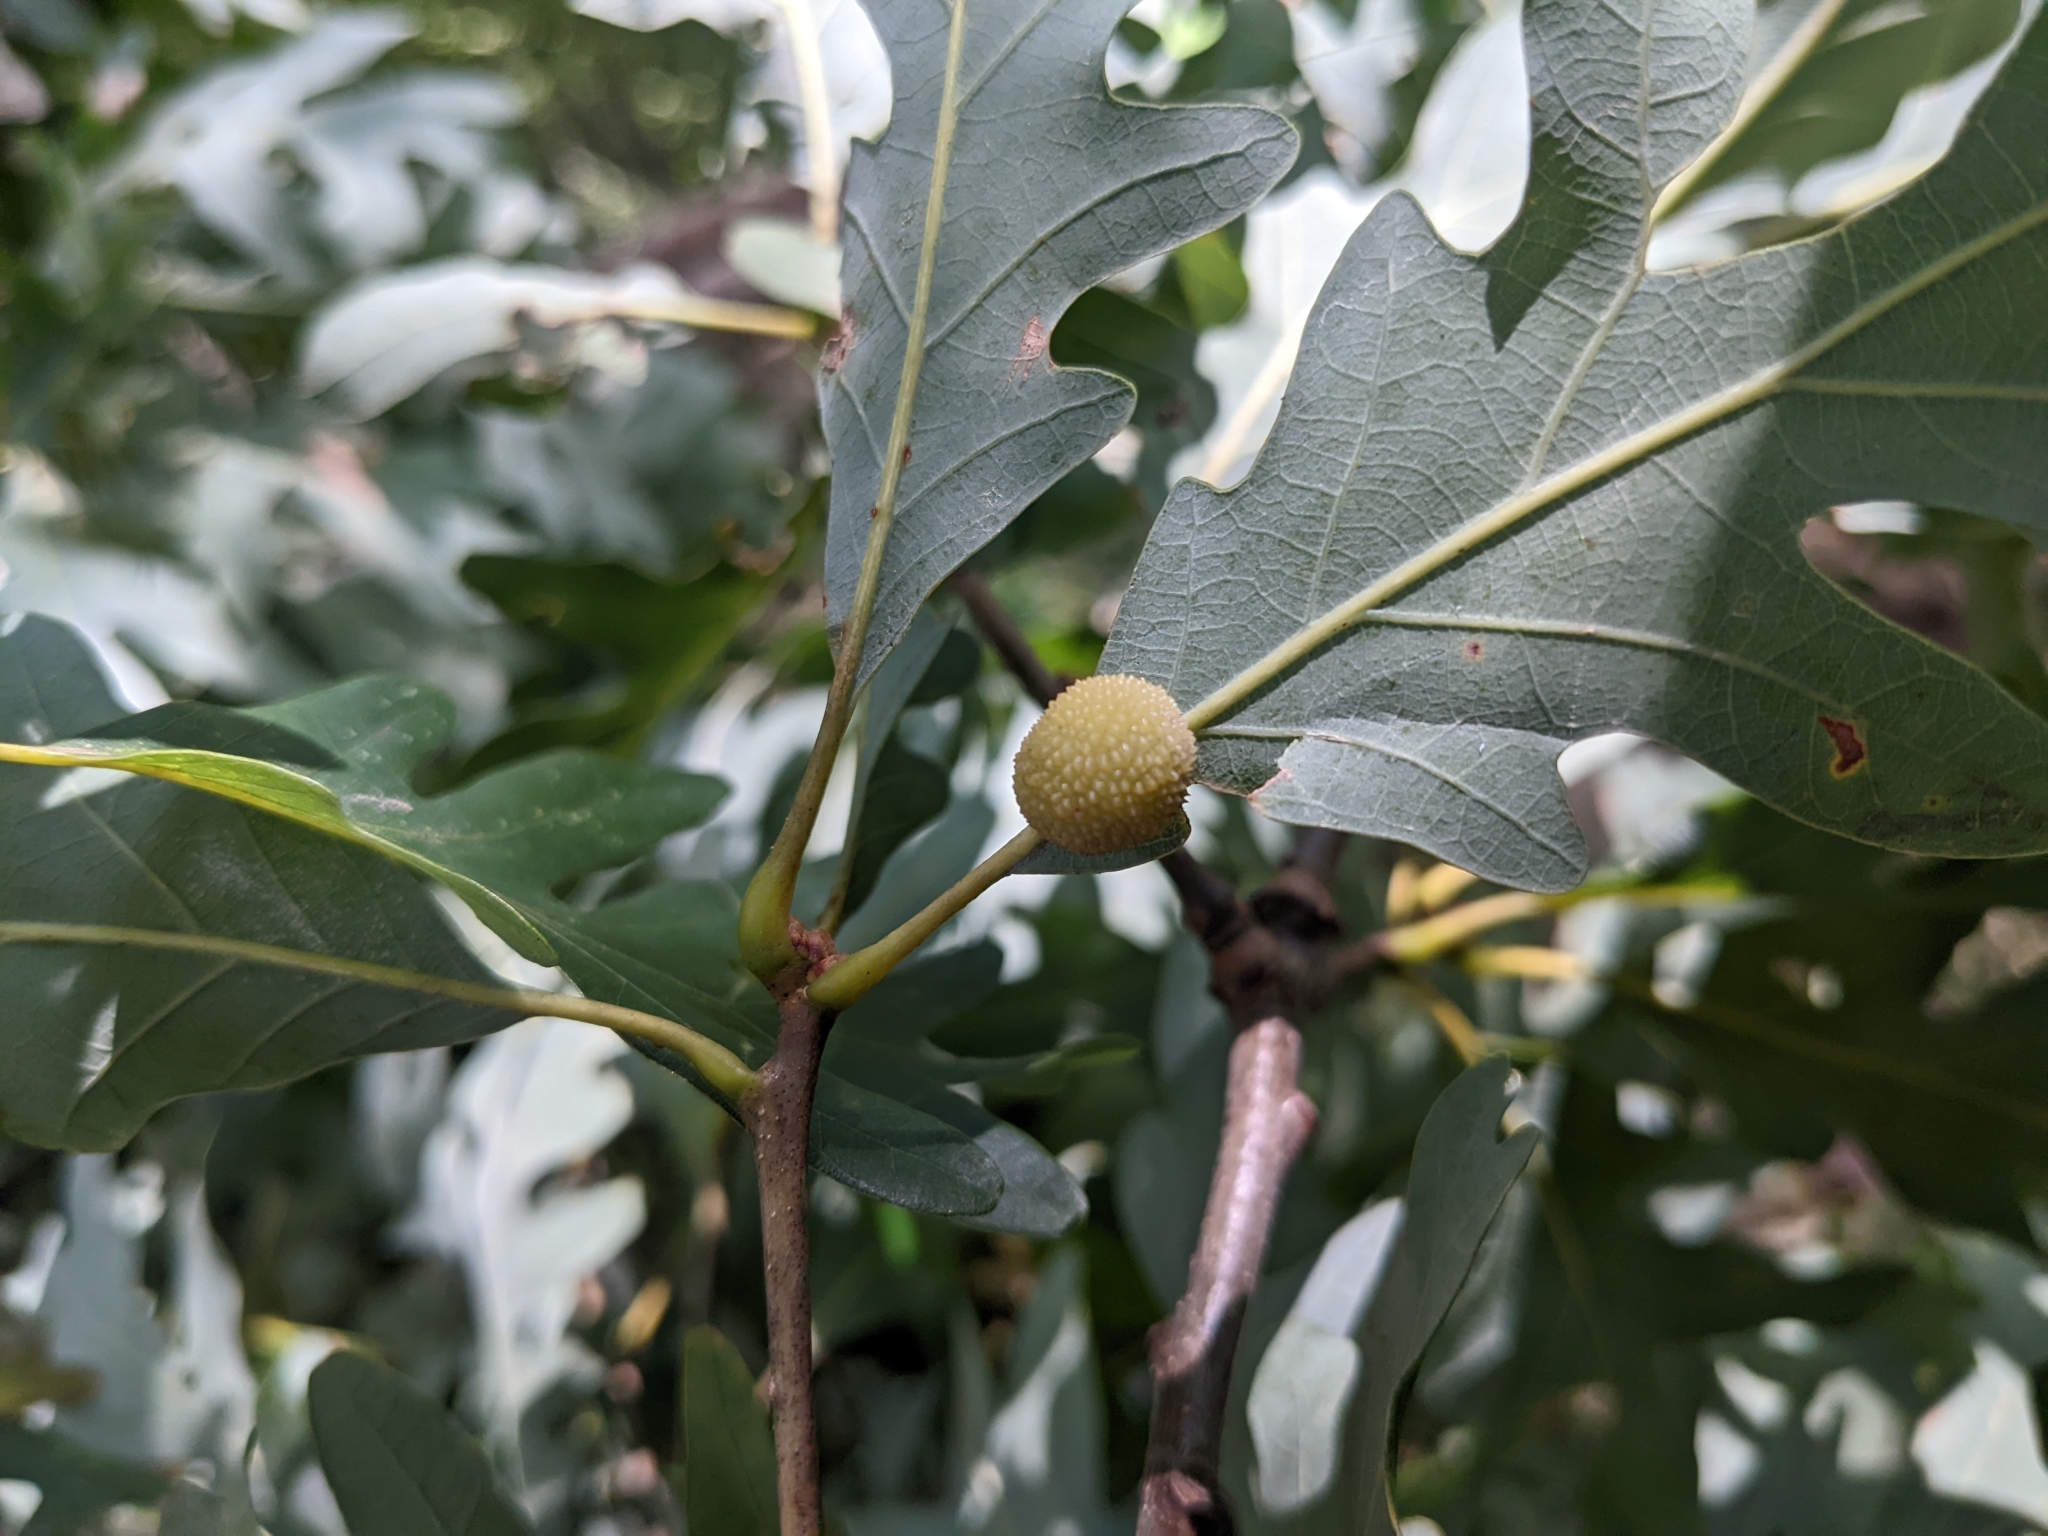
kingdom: Animalia
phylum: Arthropoda
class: Insecta
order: Hymenoptera
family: Cynipidae
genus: Acraspis
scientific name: Acraspis
